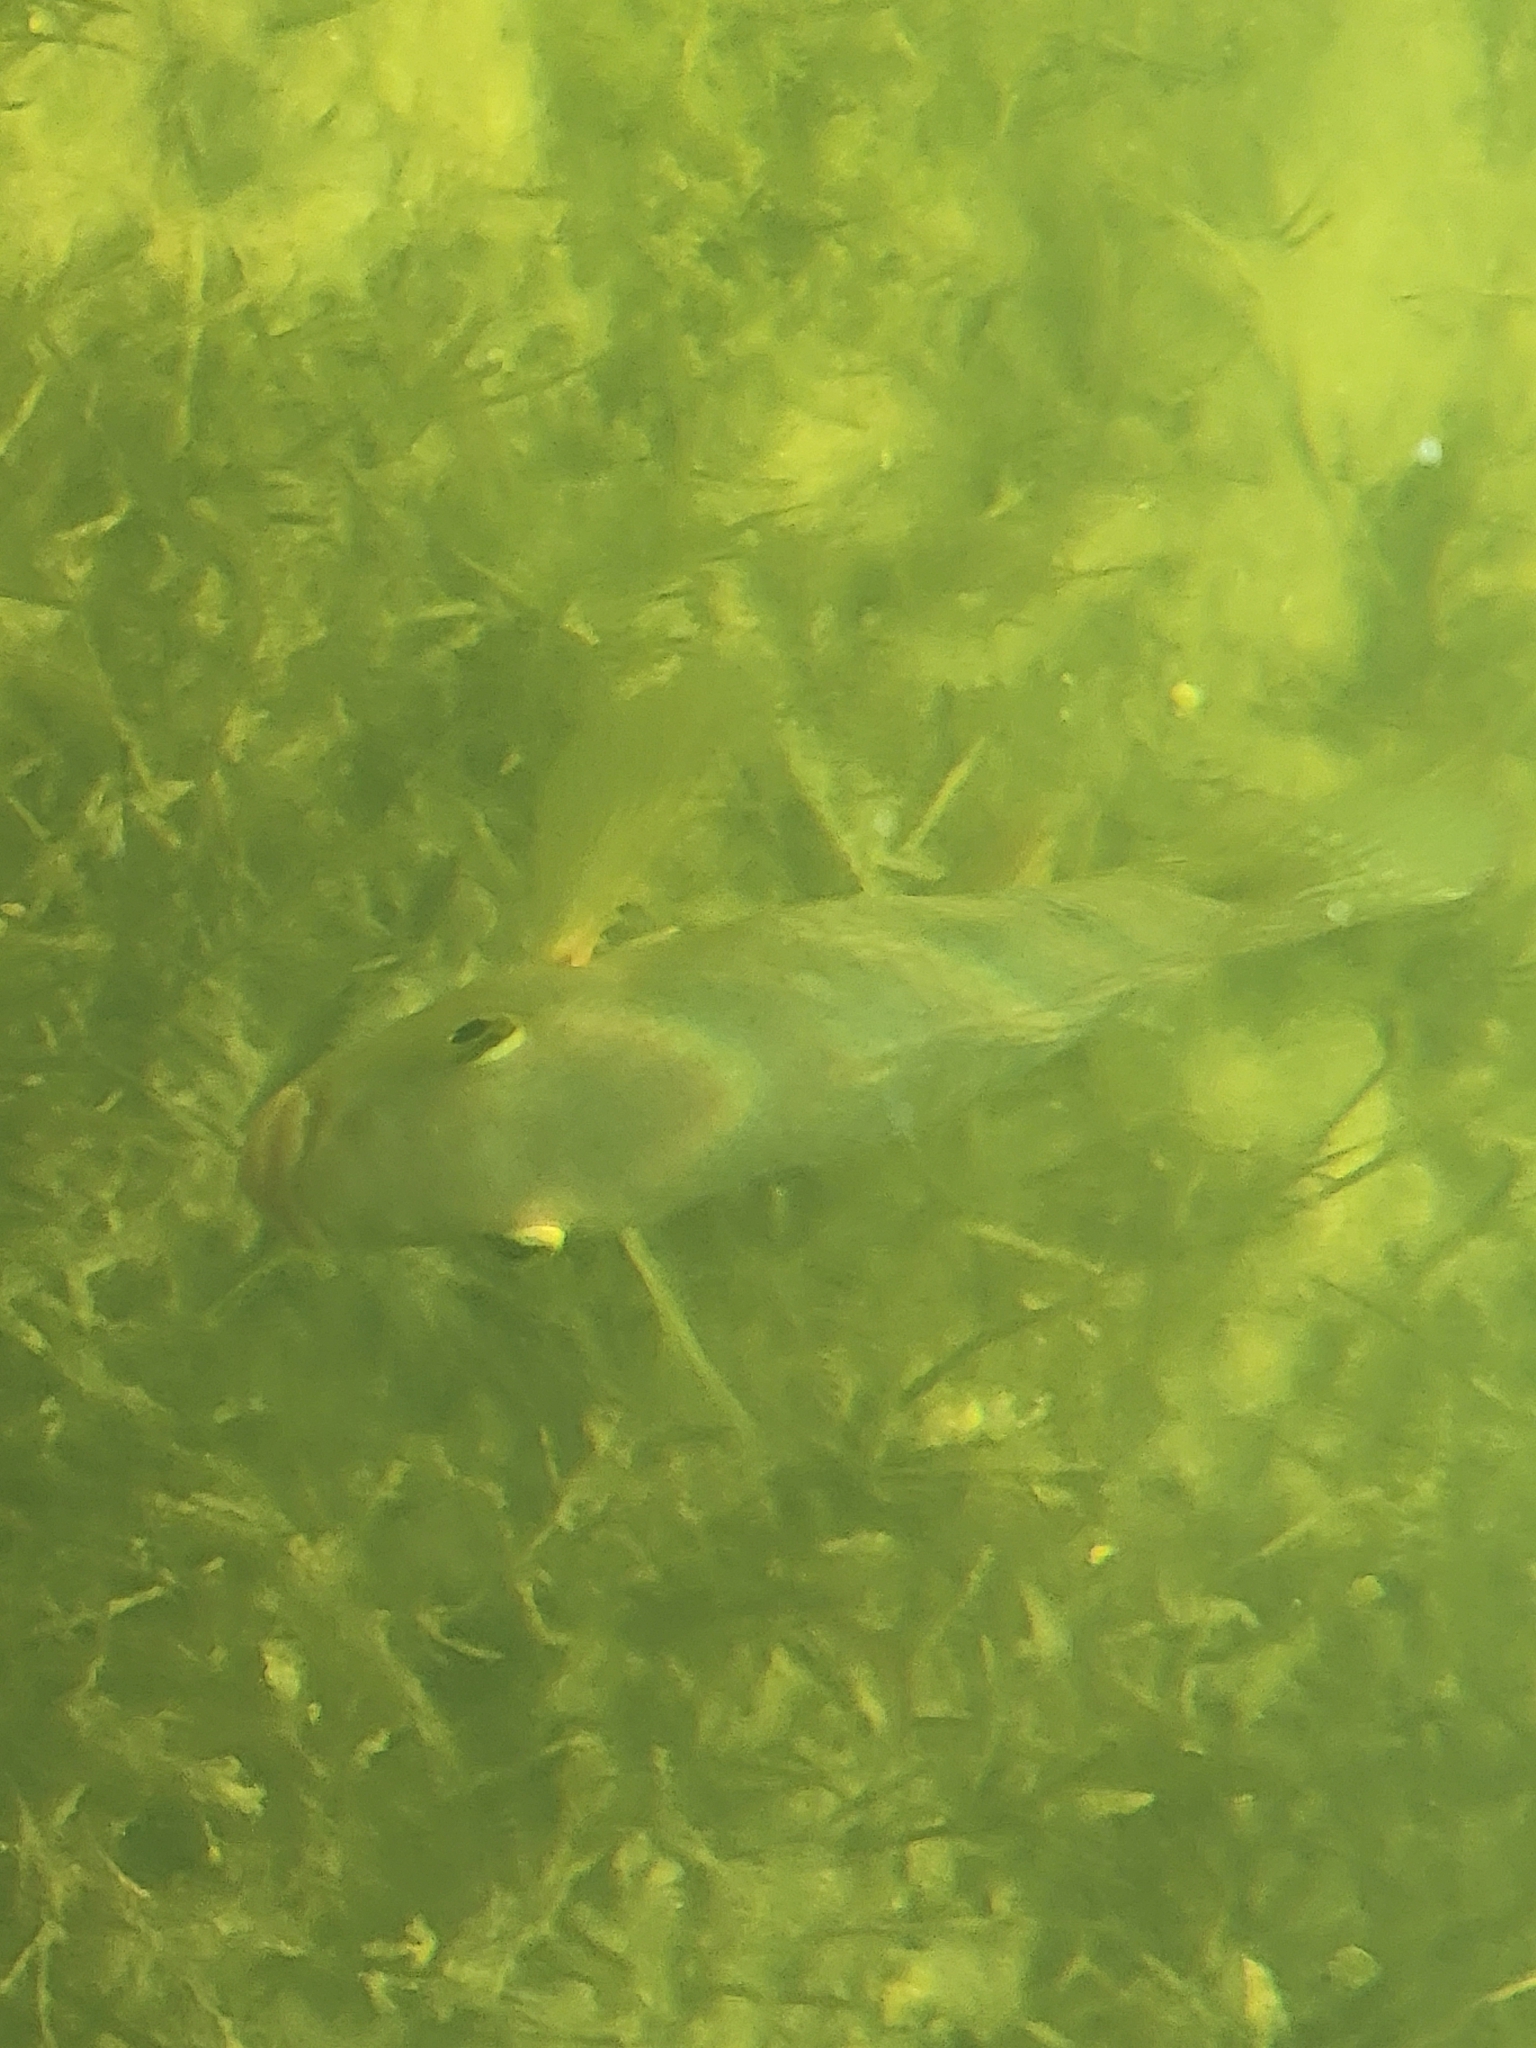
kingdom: Animalia
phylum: Chordata
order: Perciformes
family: Cichlidae
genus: Mayaheros
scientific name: Mayaheros urophthalmus
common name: Mayan cichlid
